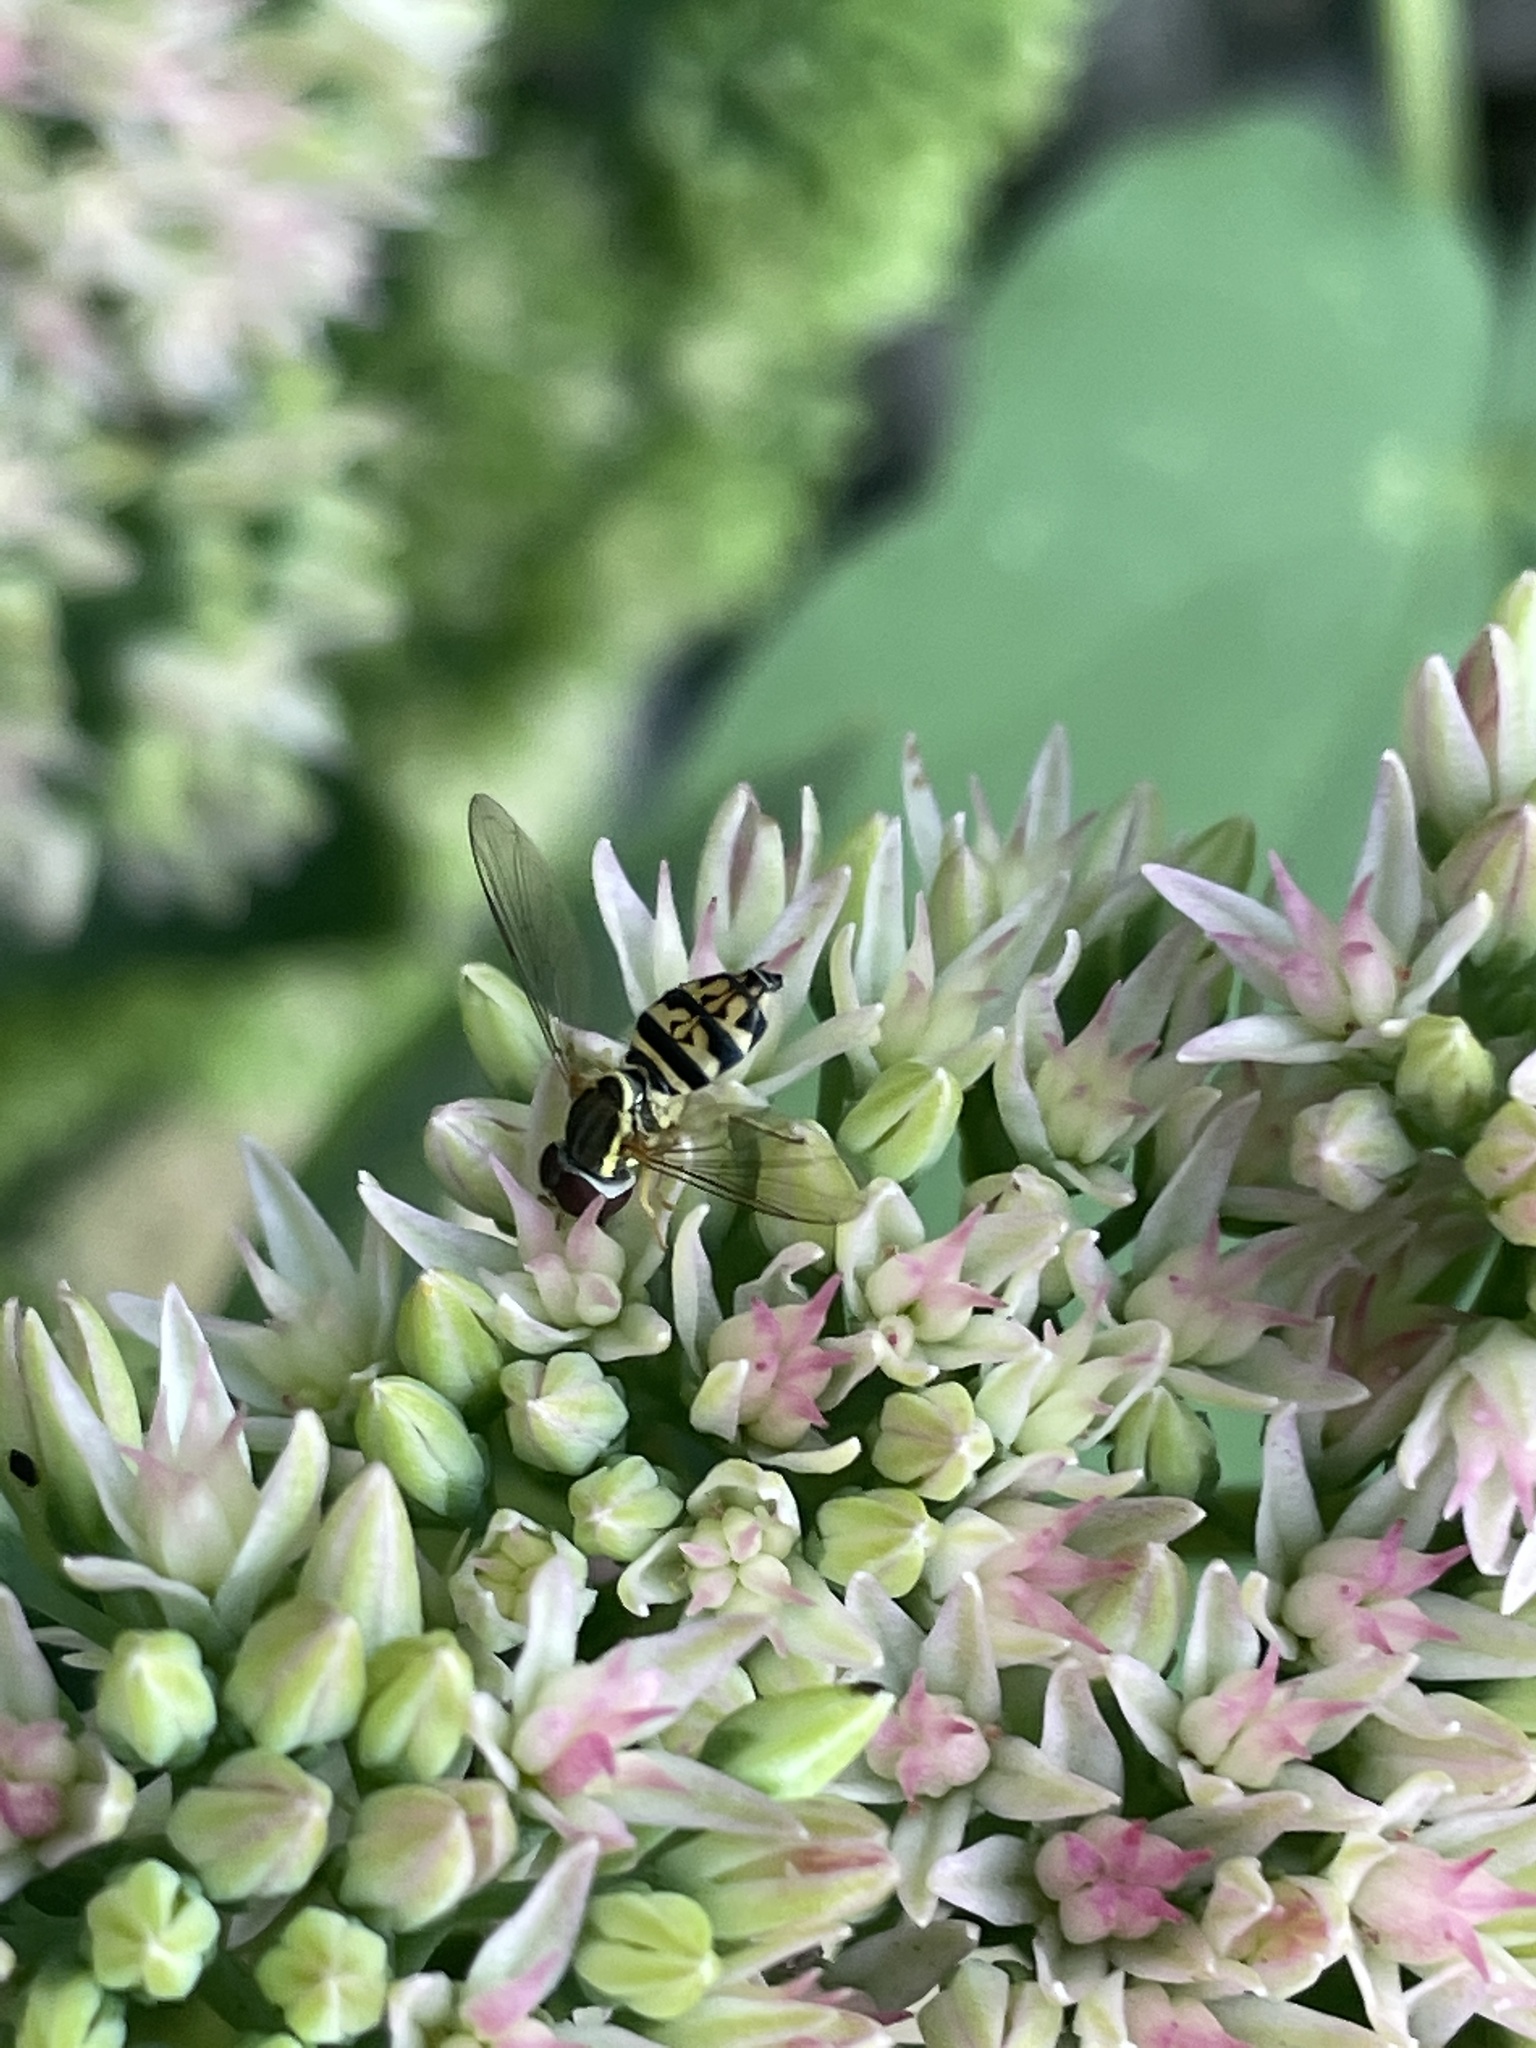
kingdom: Animalia
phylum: Arthropoda
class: Insecta
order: Diptera
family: Syrphidae
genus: Toxomerus
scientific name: Toxomerus geminatus
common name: Eastern calligrapher
